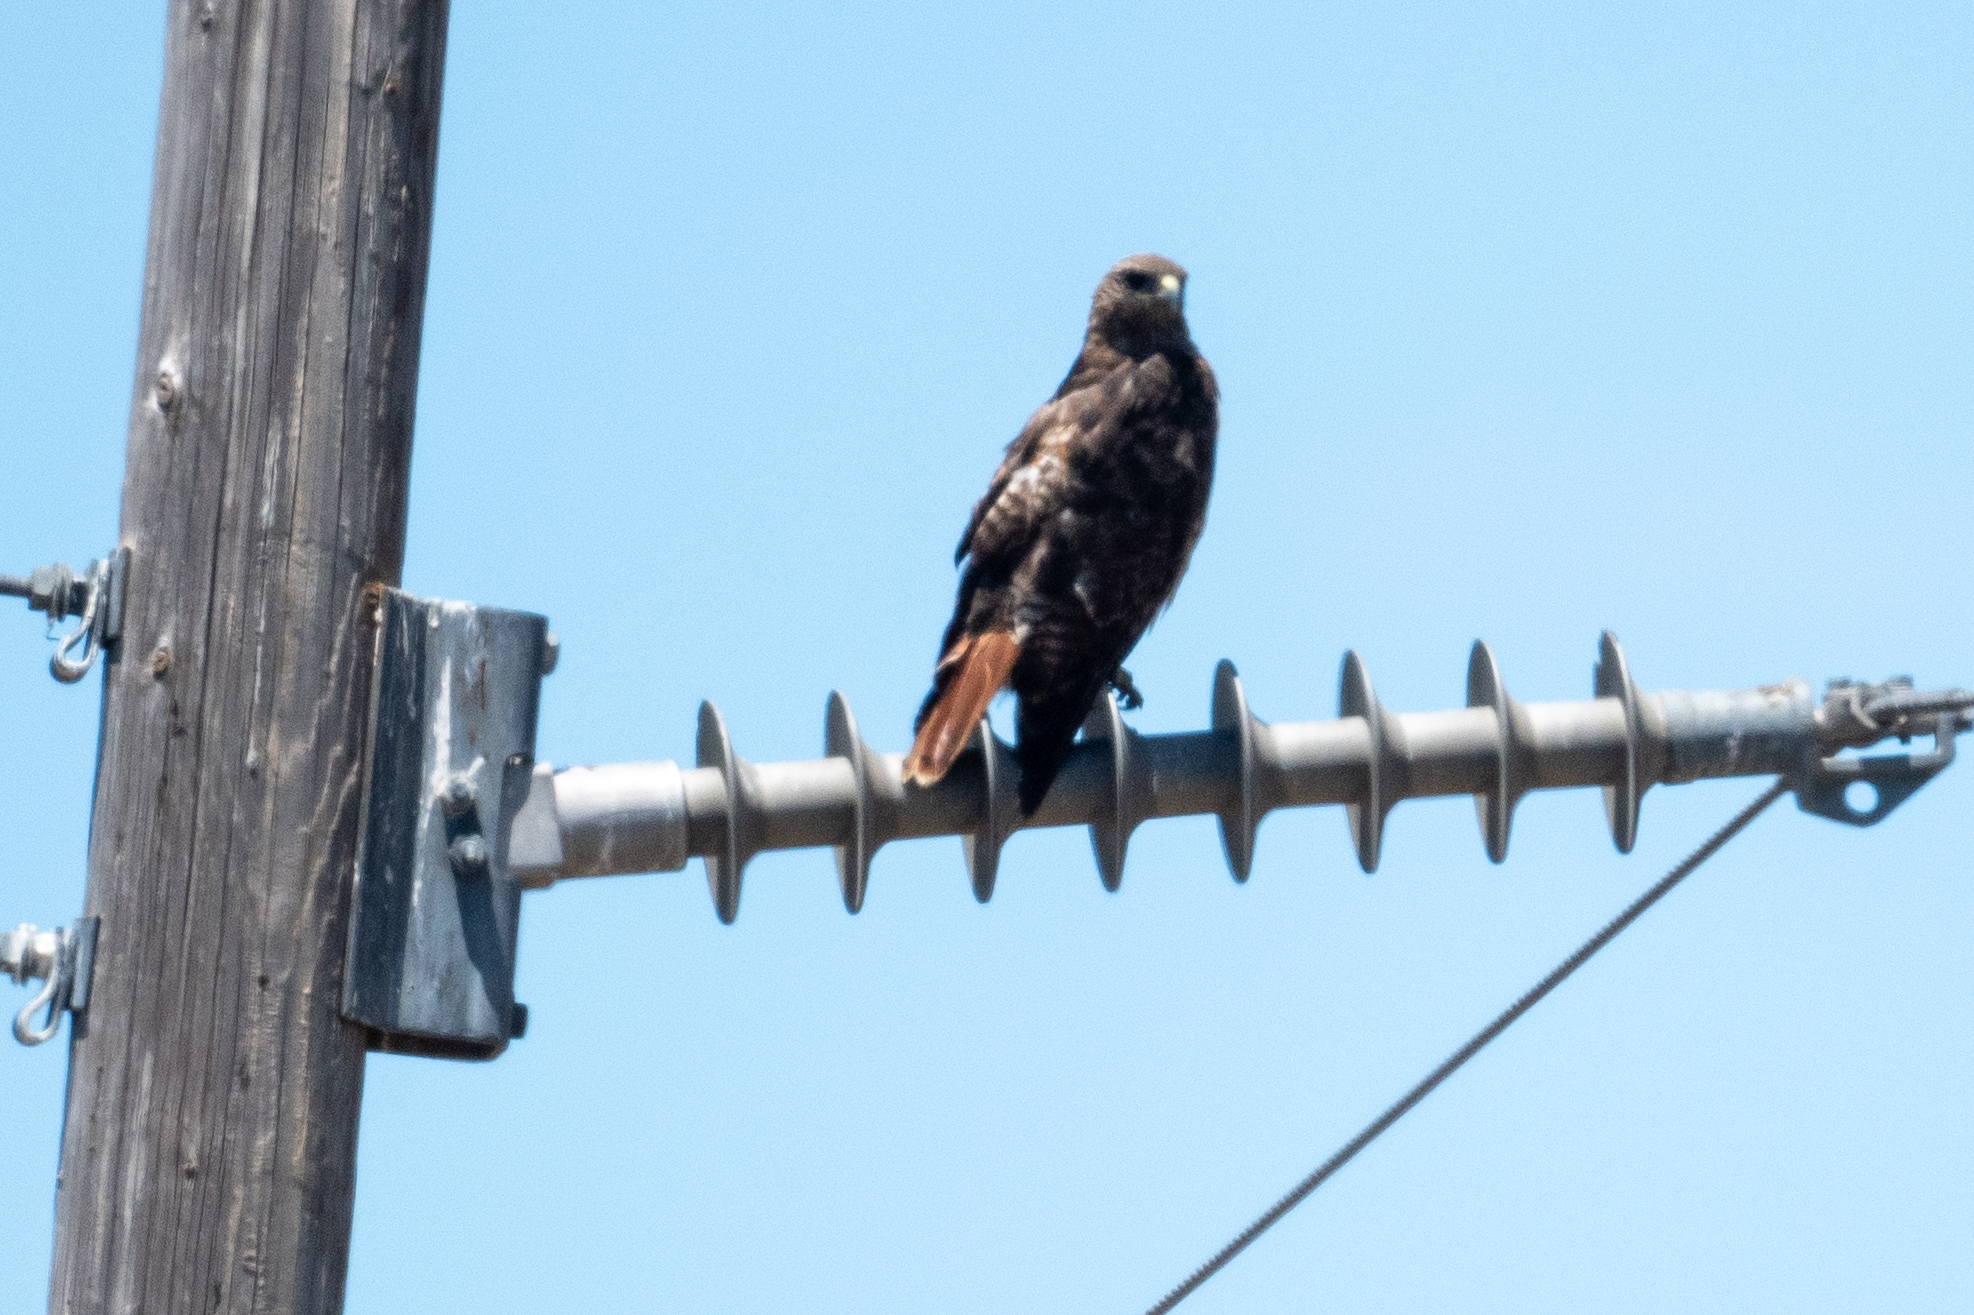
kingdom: Animalia
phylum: Chordata
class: Aves
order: Accipitriformes
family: Accipitridae
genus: Buteo
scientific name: Buteo jamaicensis
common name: Red-tailed hawk
